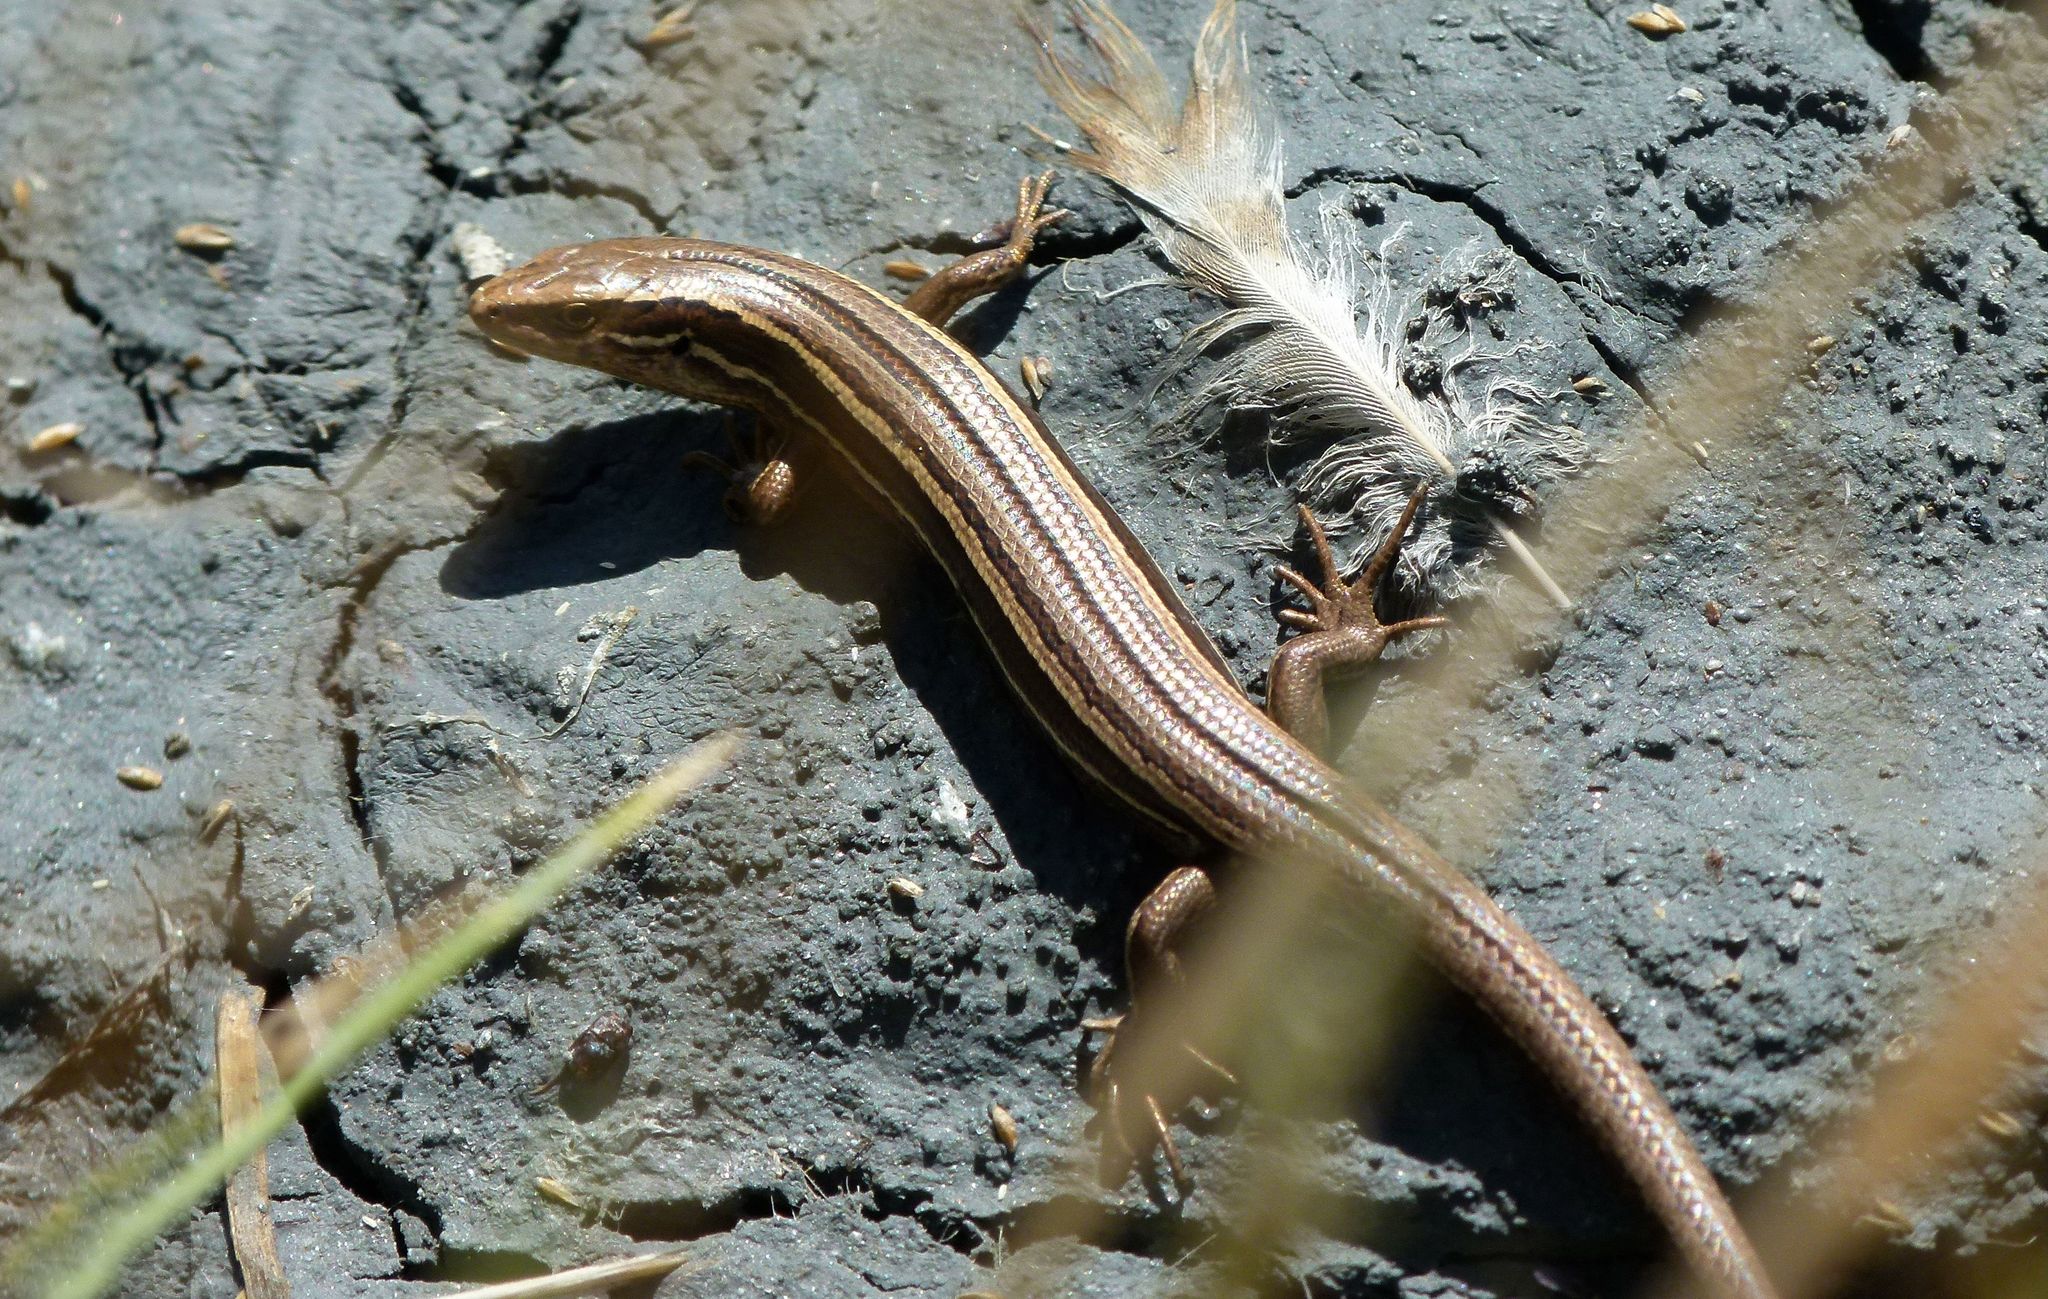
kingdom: Animalia
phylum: Chordata
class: Squamata
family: Scincidae
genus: Oligosoma
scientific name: Oligosoma polychroma
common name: Common new zealand skink
